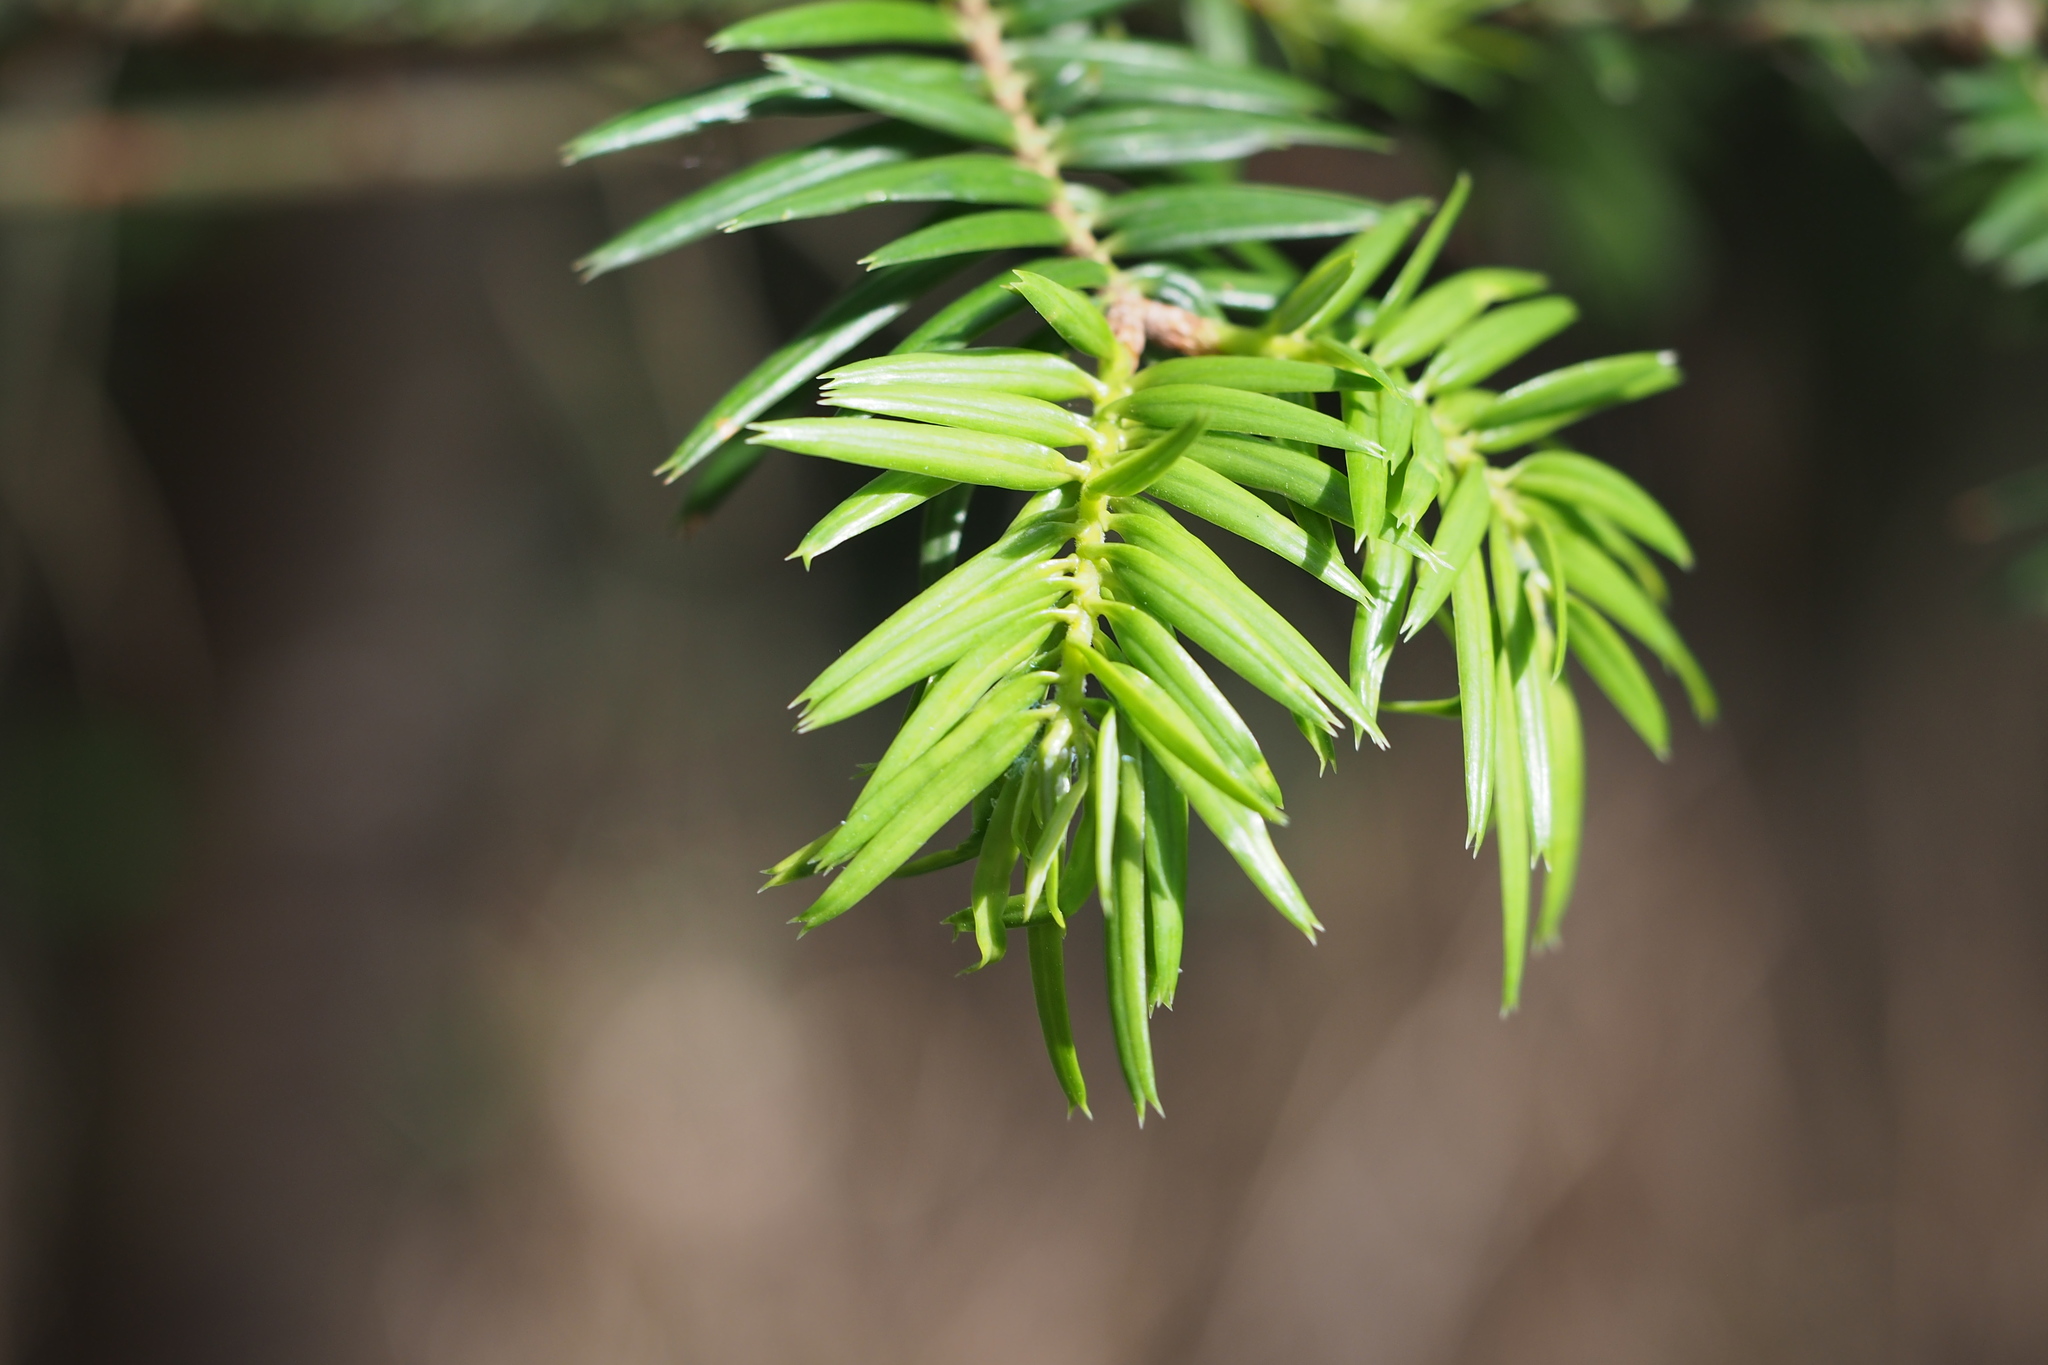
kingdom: Plantae
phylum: Tracheophyta
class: Pinopsida
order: Pinales
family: Pinaceae
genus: Abies
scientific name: Abies firma
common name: Momi fir
